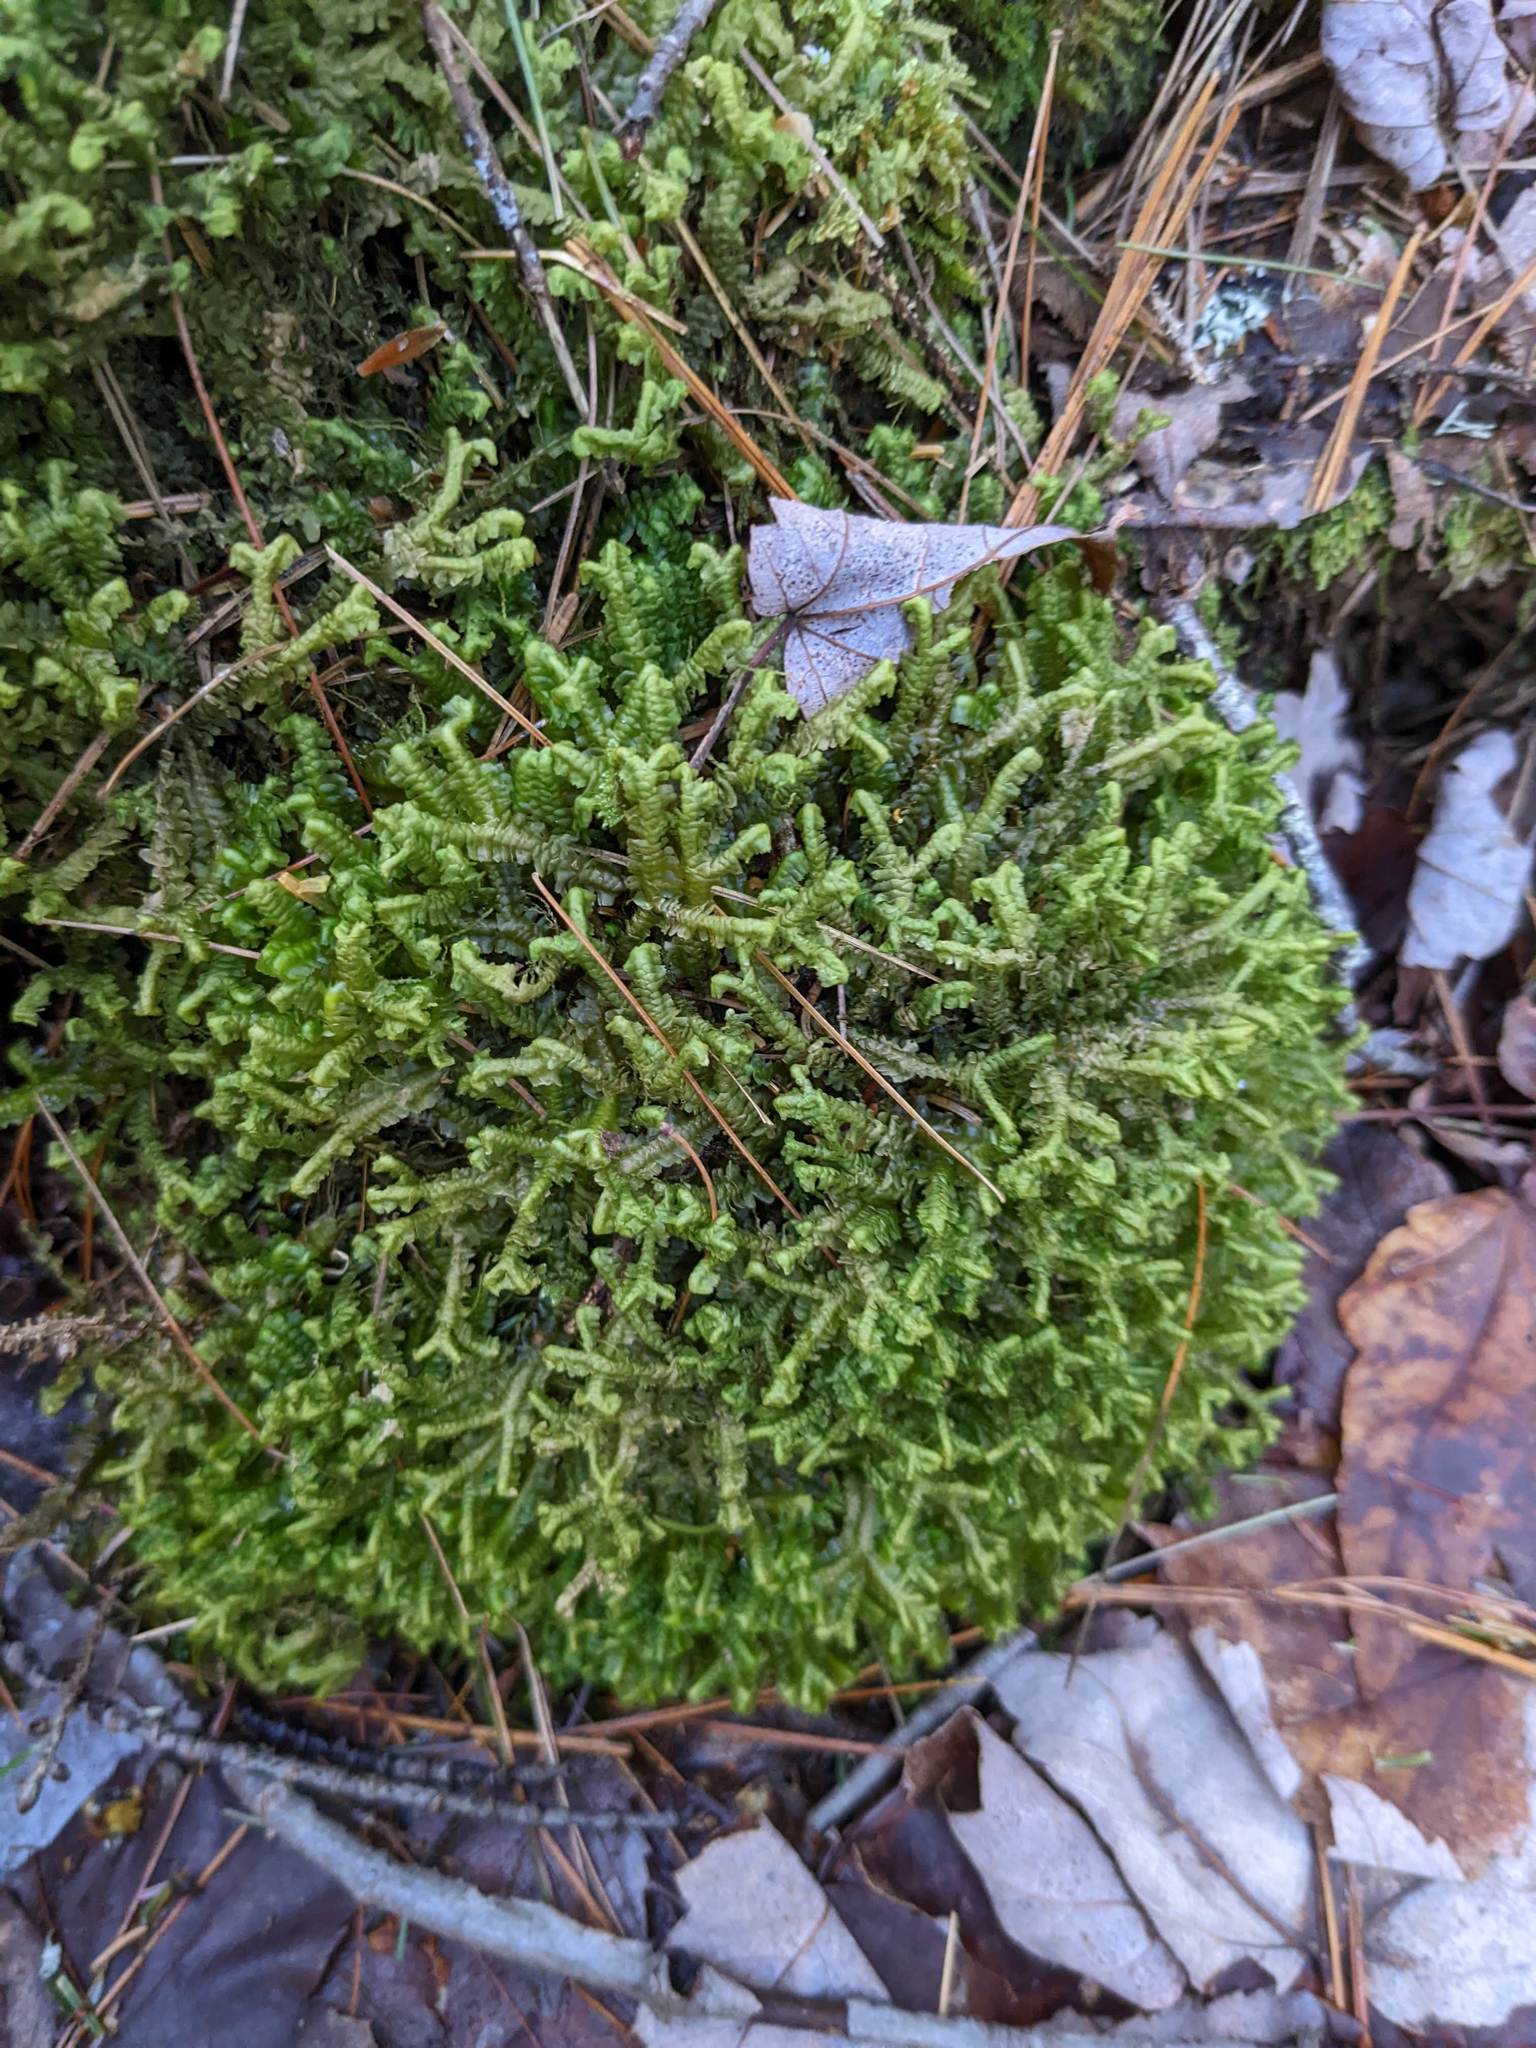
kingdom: Plantae
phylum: Marchantiophyta
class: Jungermanniopsida
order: Jungermanniales
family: Lepidoziaceae
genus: Bazzania
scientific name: Bazzania trilobata
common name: Three-lobed whipwort
